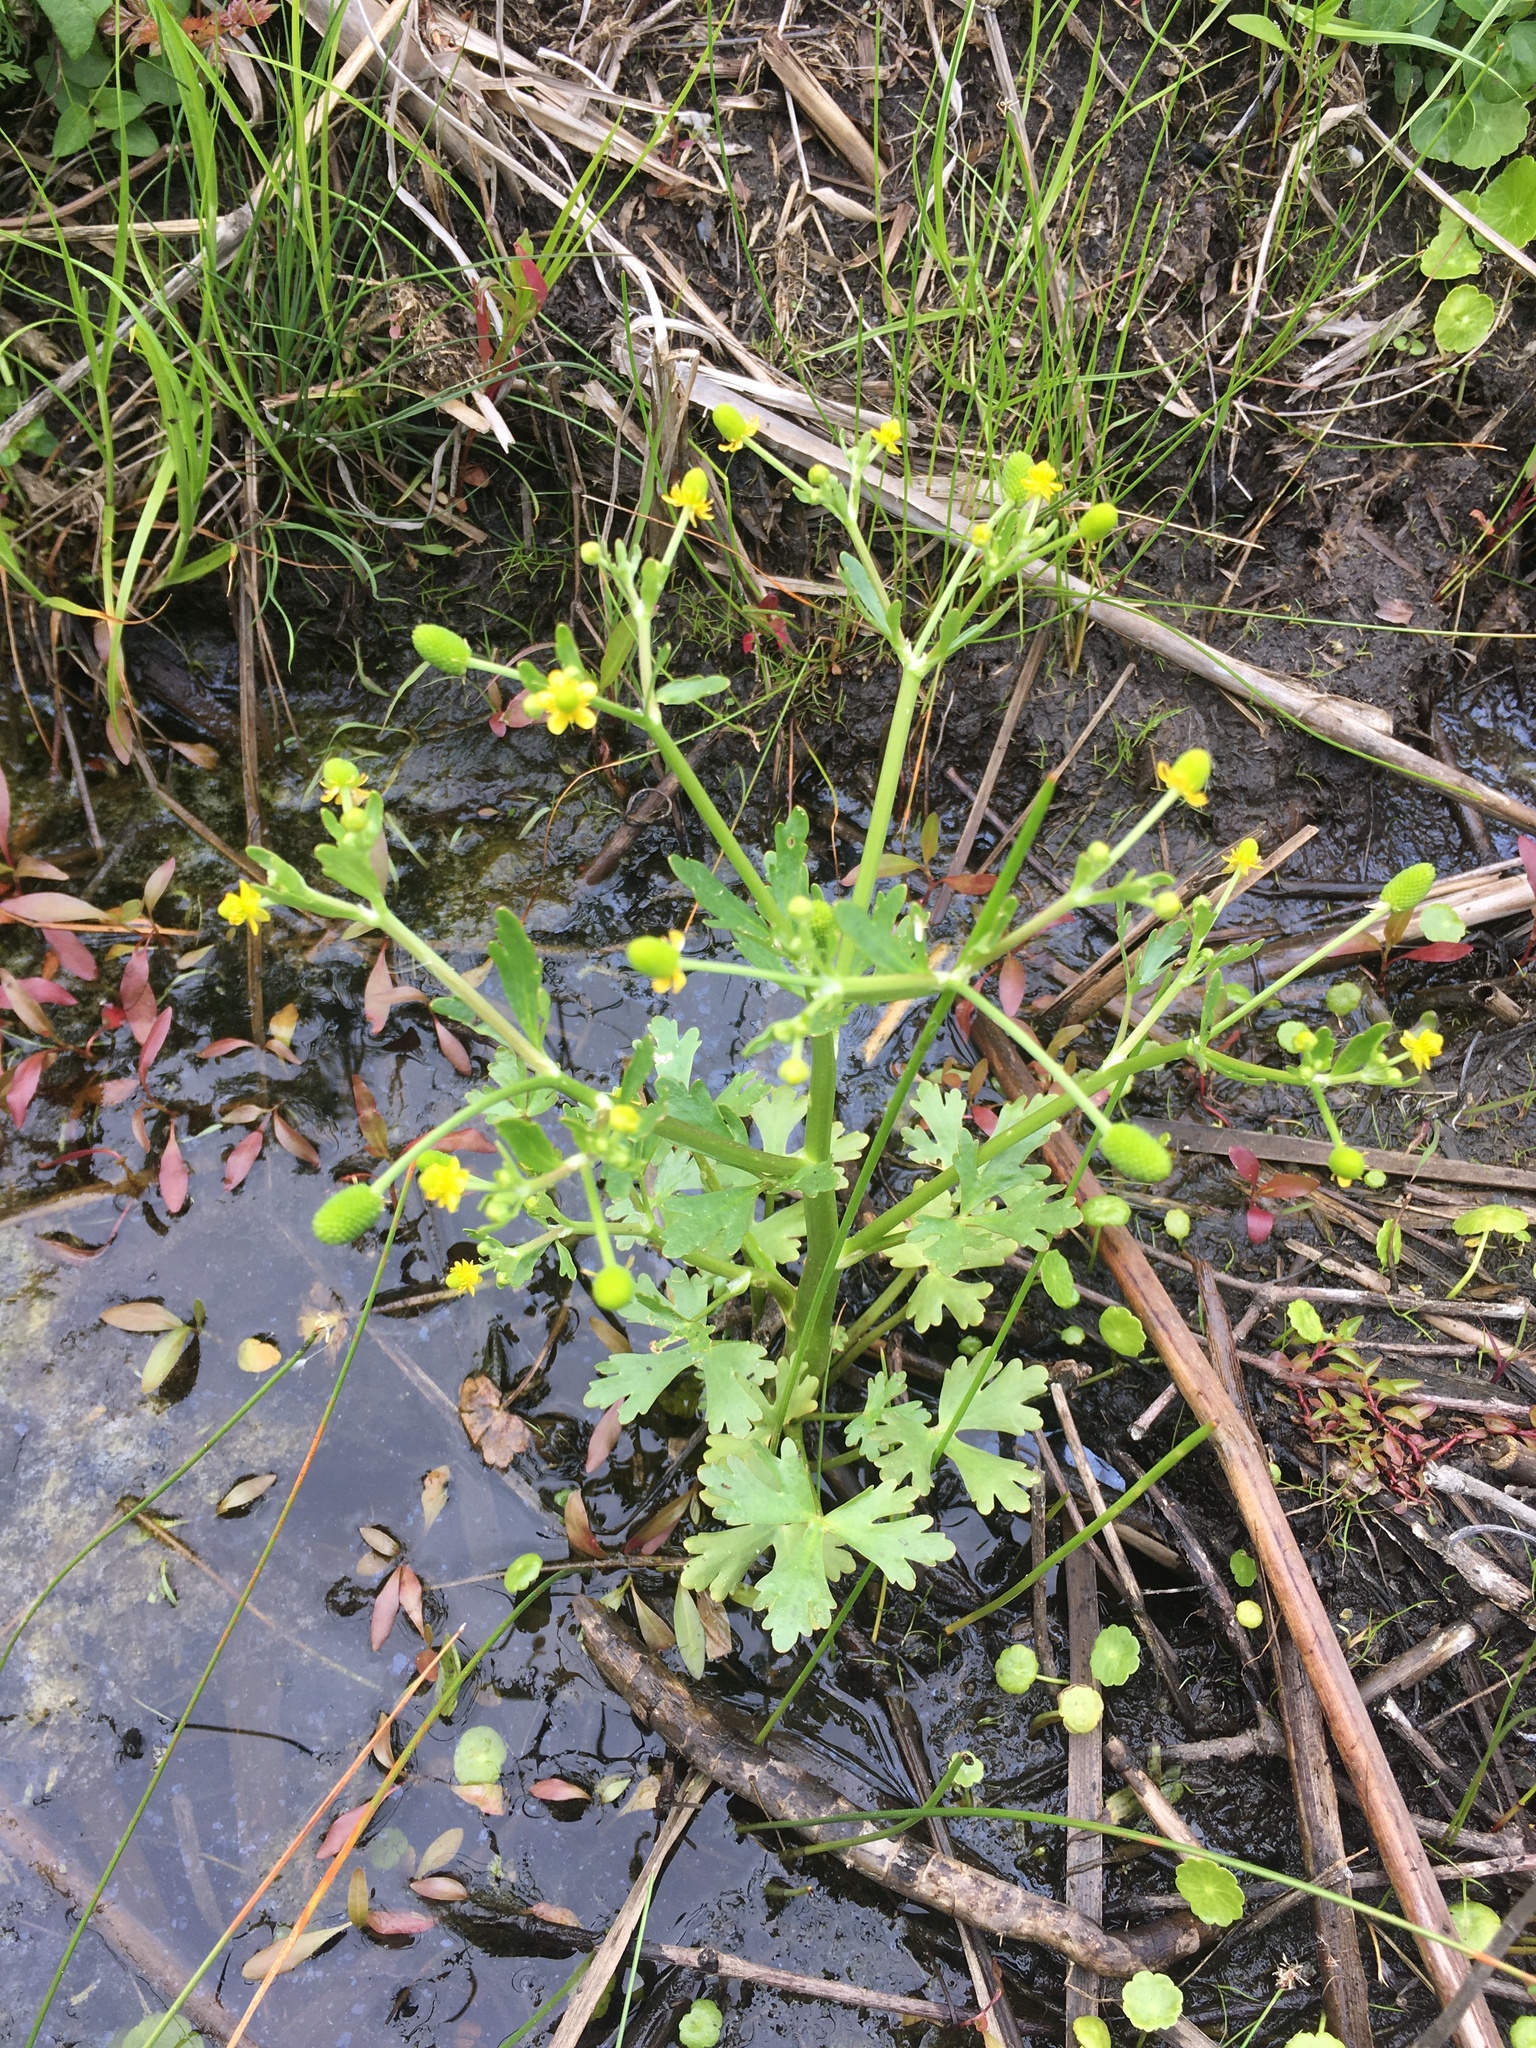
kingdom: Plantae
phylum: Tracheophyta
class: Magnoliopsida
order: Ranunculales
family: Ranunculaceae
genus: Ranunculus
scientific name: Ranunculus sceleratus
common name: Celery-leaved buttercup
